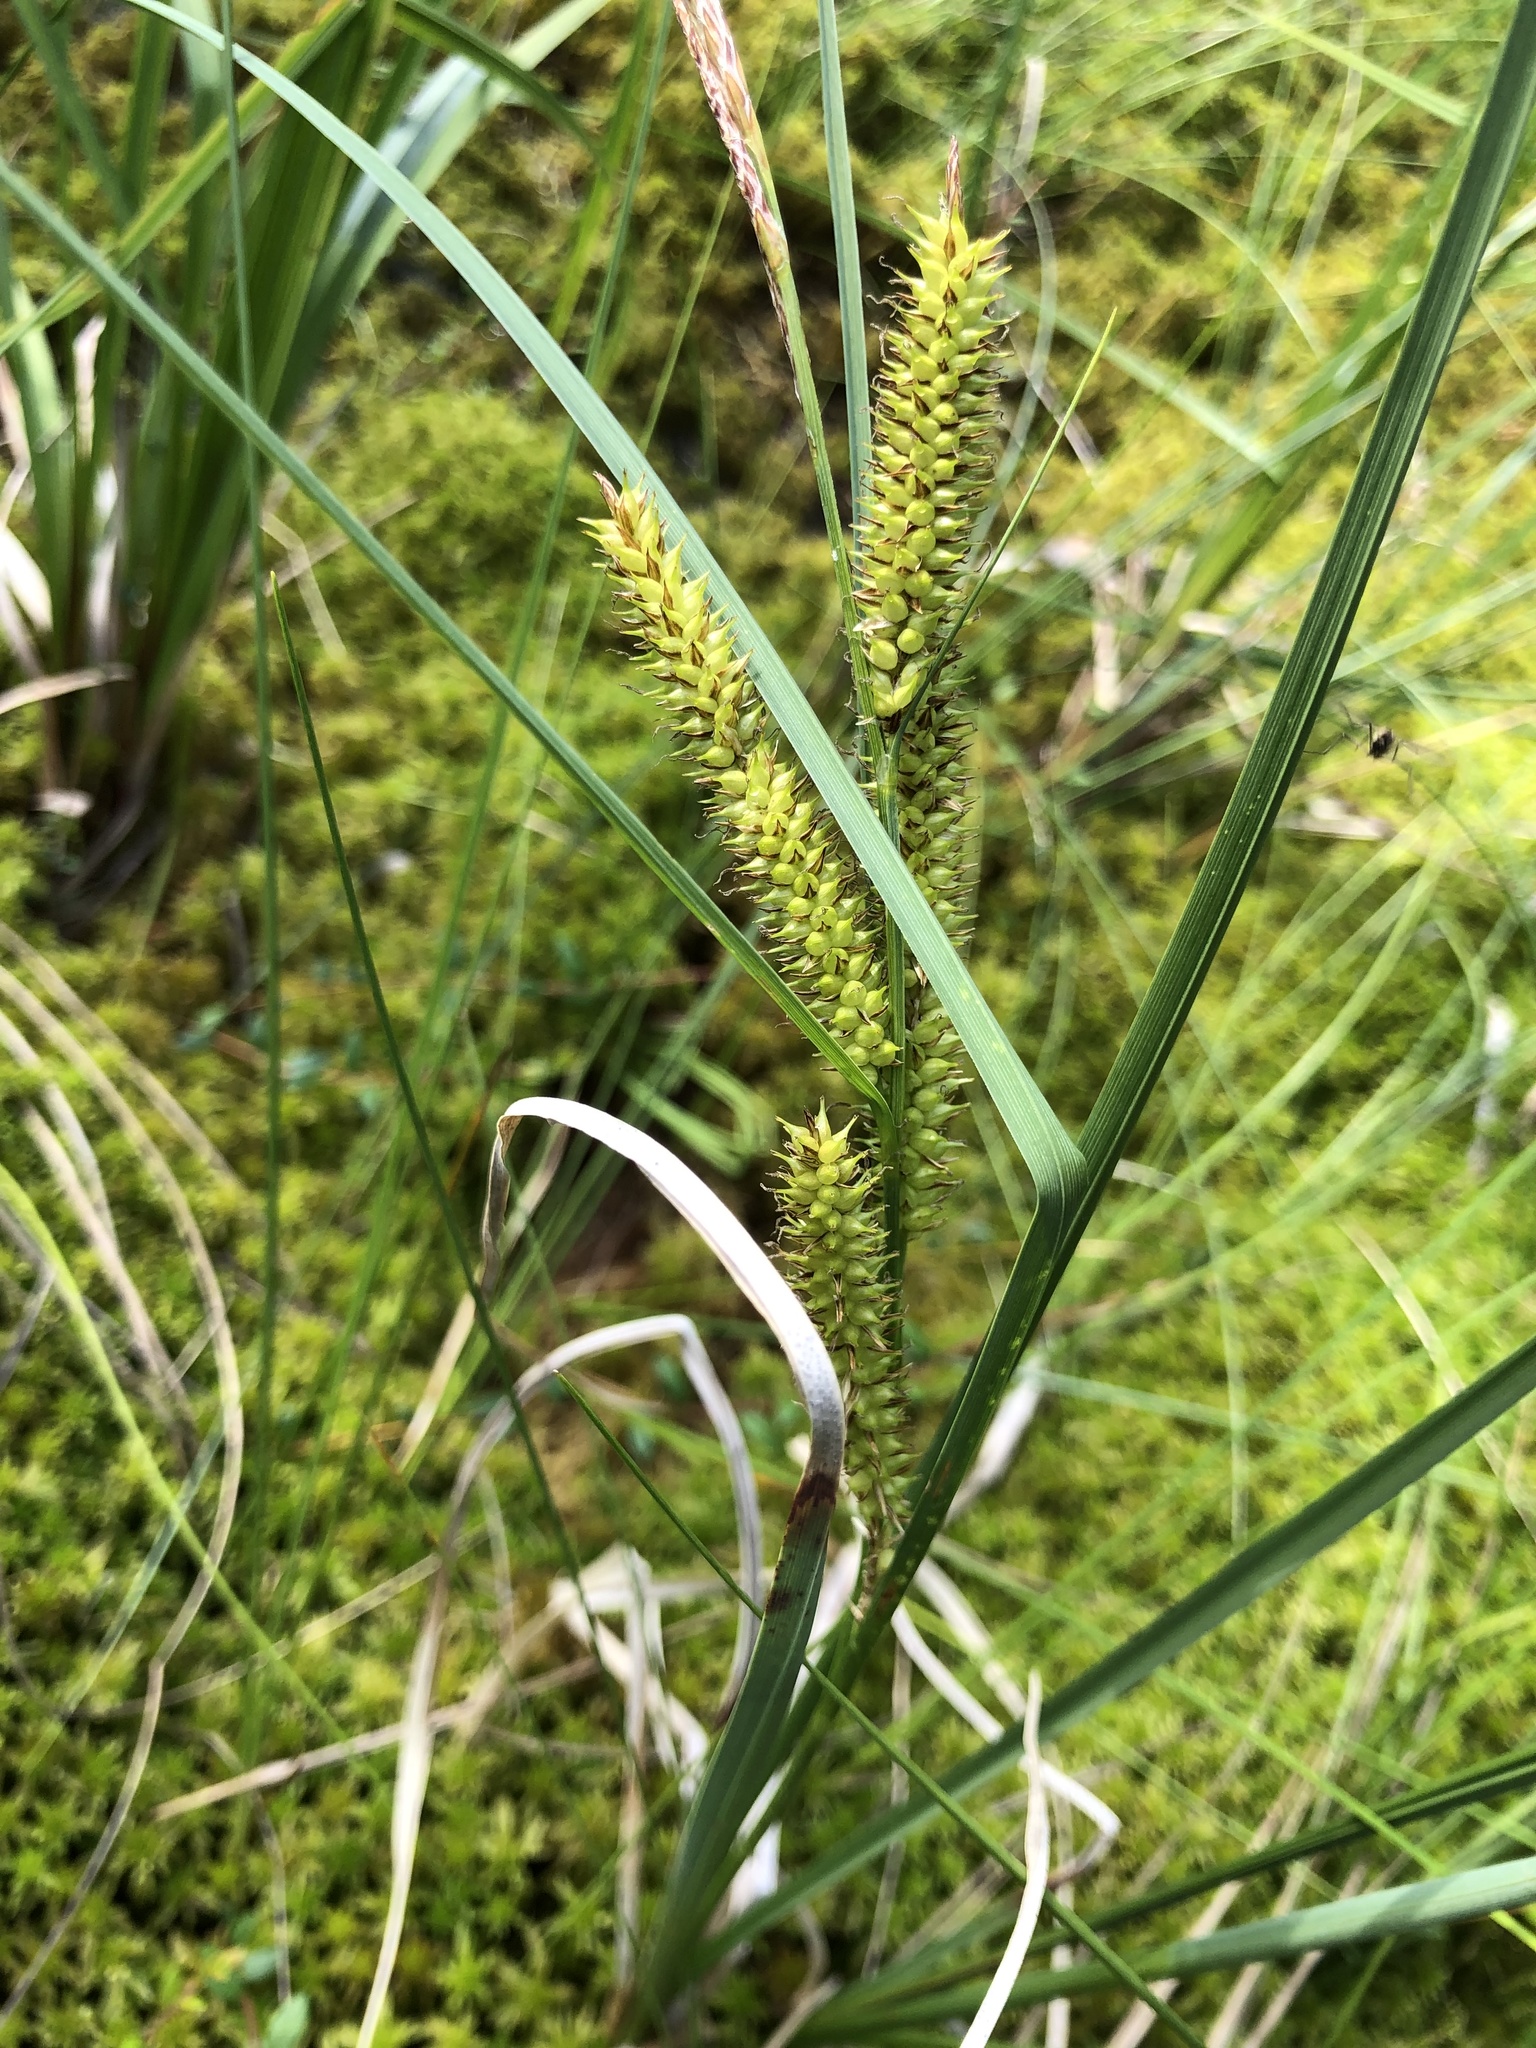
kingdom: Plantae
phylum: Tracheophyta
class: Liliopsida
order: Poales
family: Cyperaceae
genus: Carex
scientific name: Carex rostrata
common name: Bottle sedge
